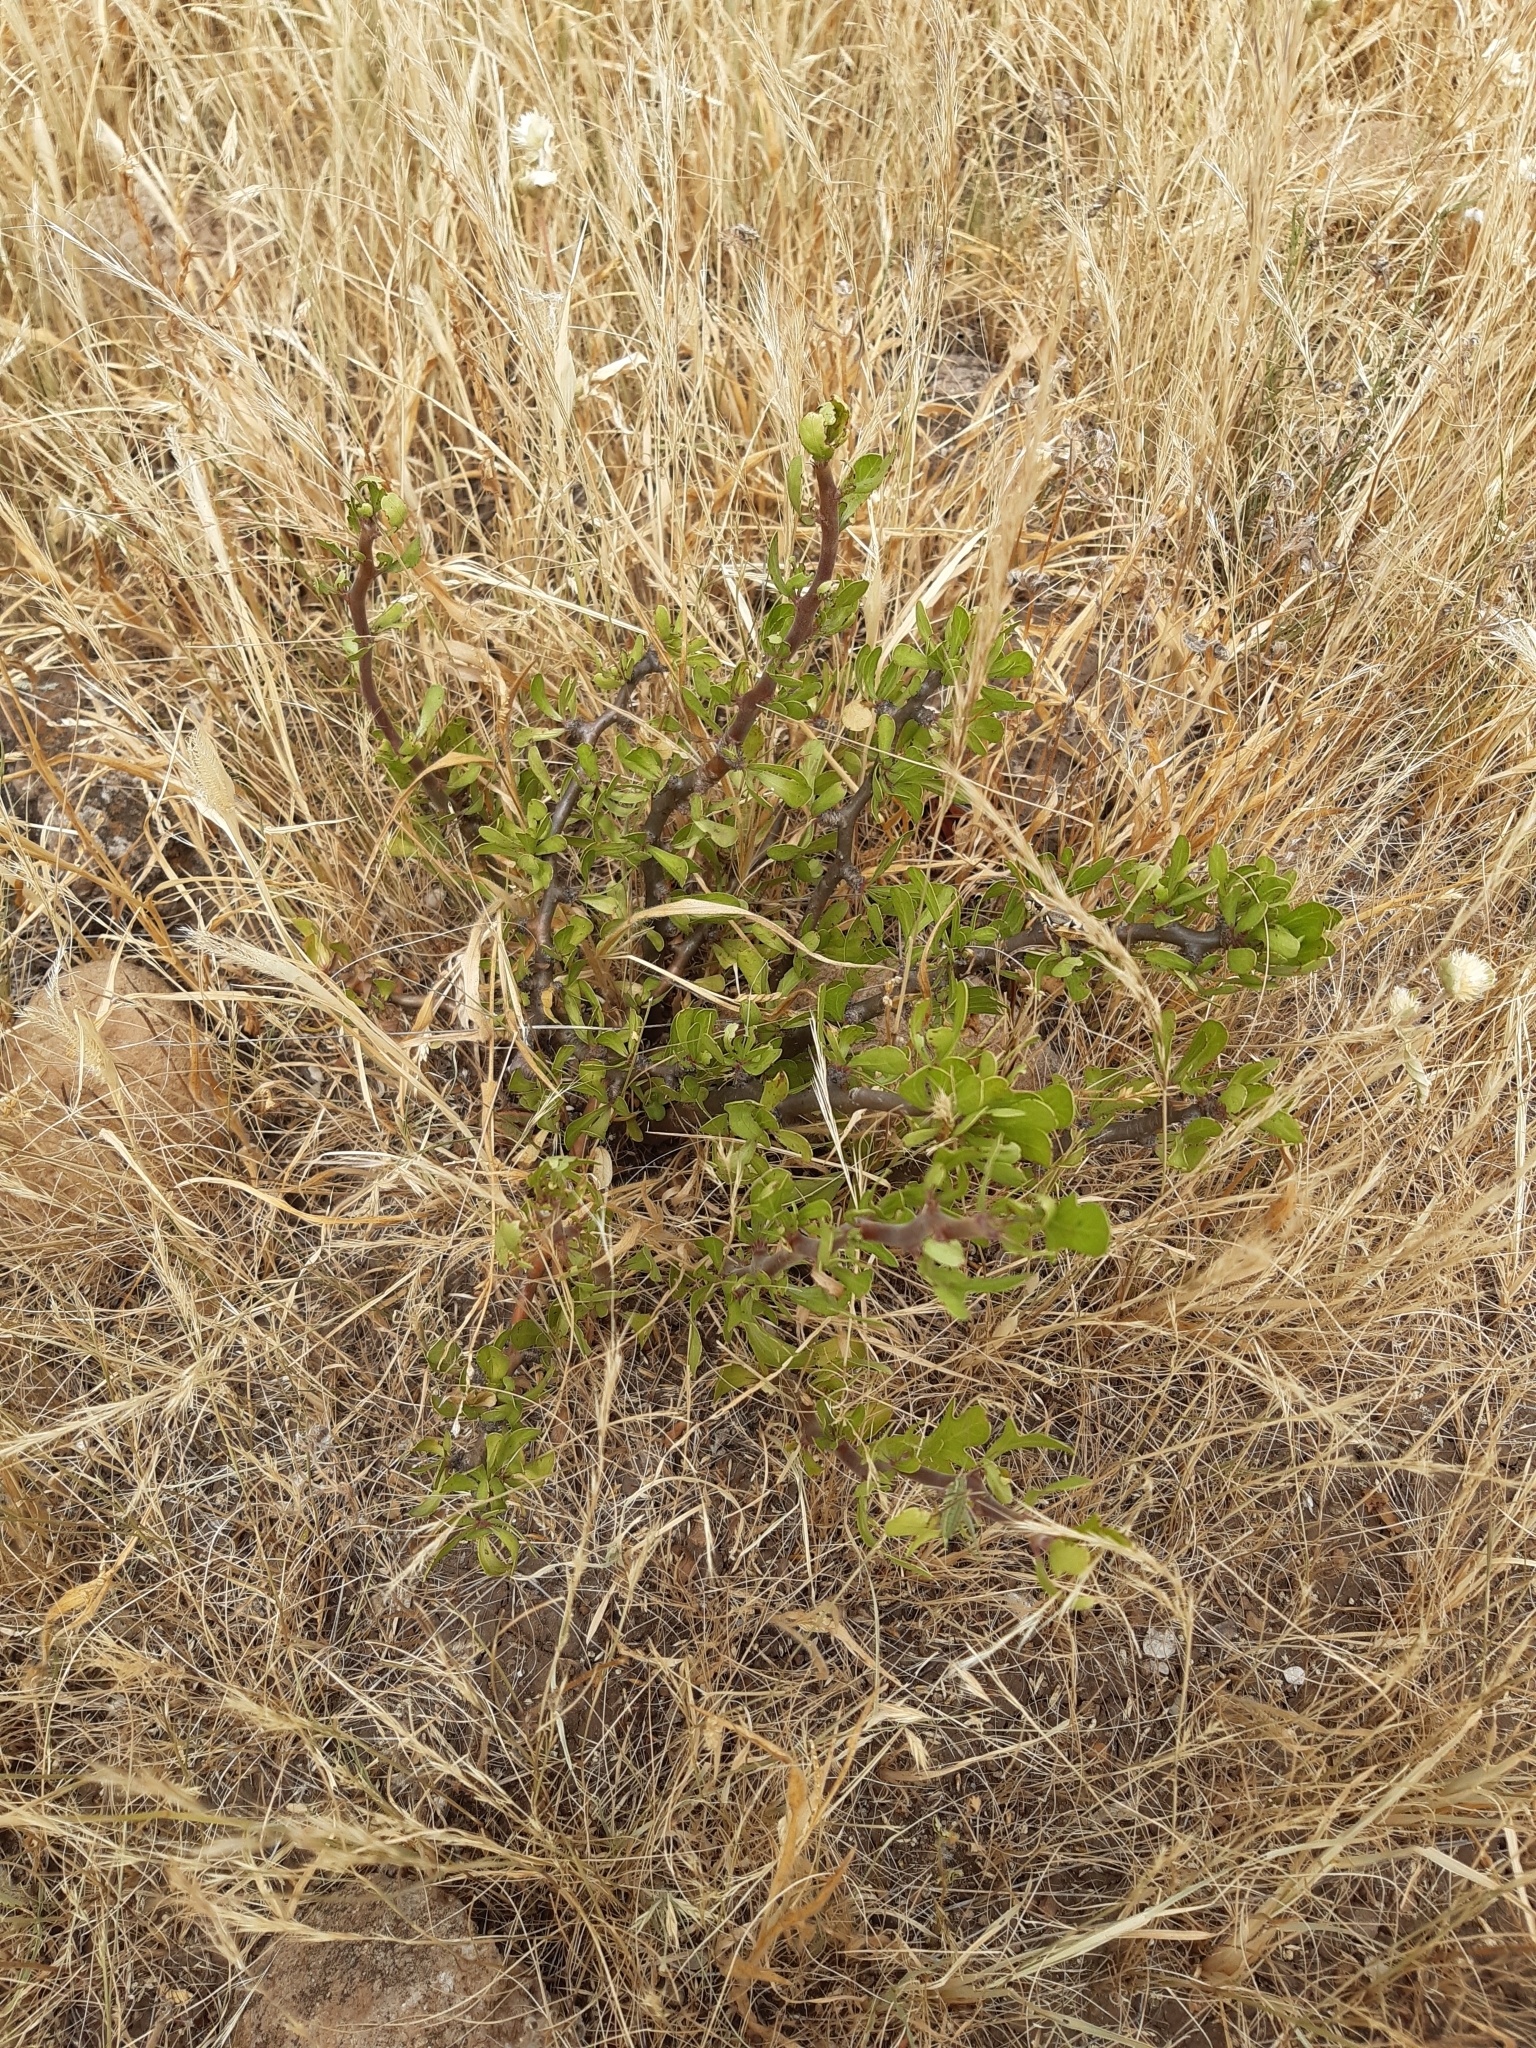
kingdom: Plantae
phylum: Tracheophyta
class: Magnoliopsida
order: Malpighiales
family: Euphorbiaceae
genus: Jatropha
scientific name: Jatropha dioica
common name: Leatherstem
